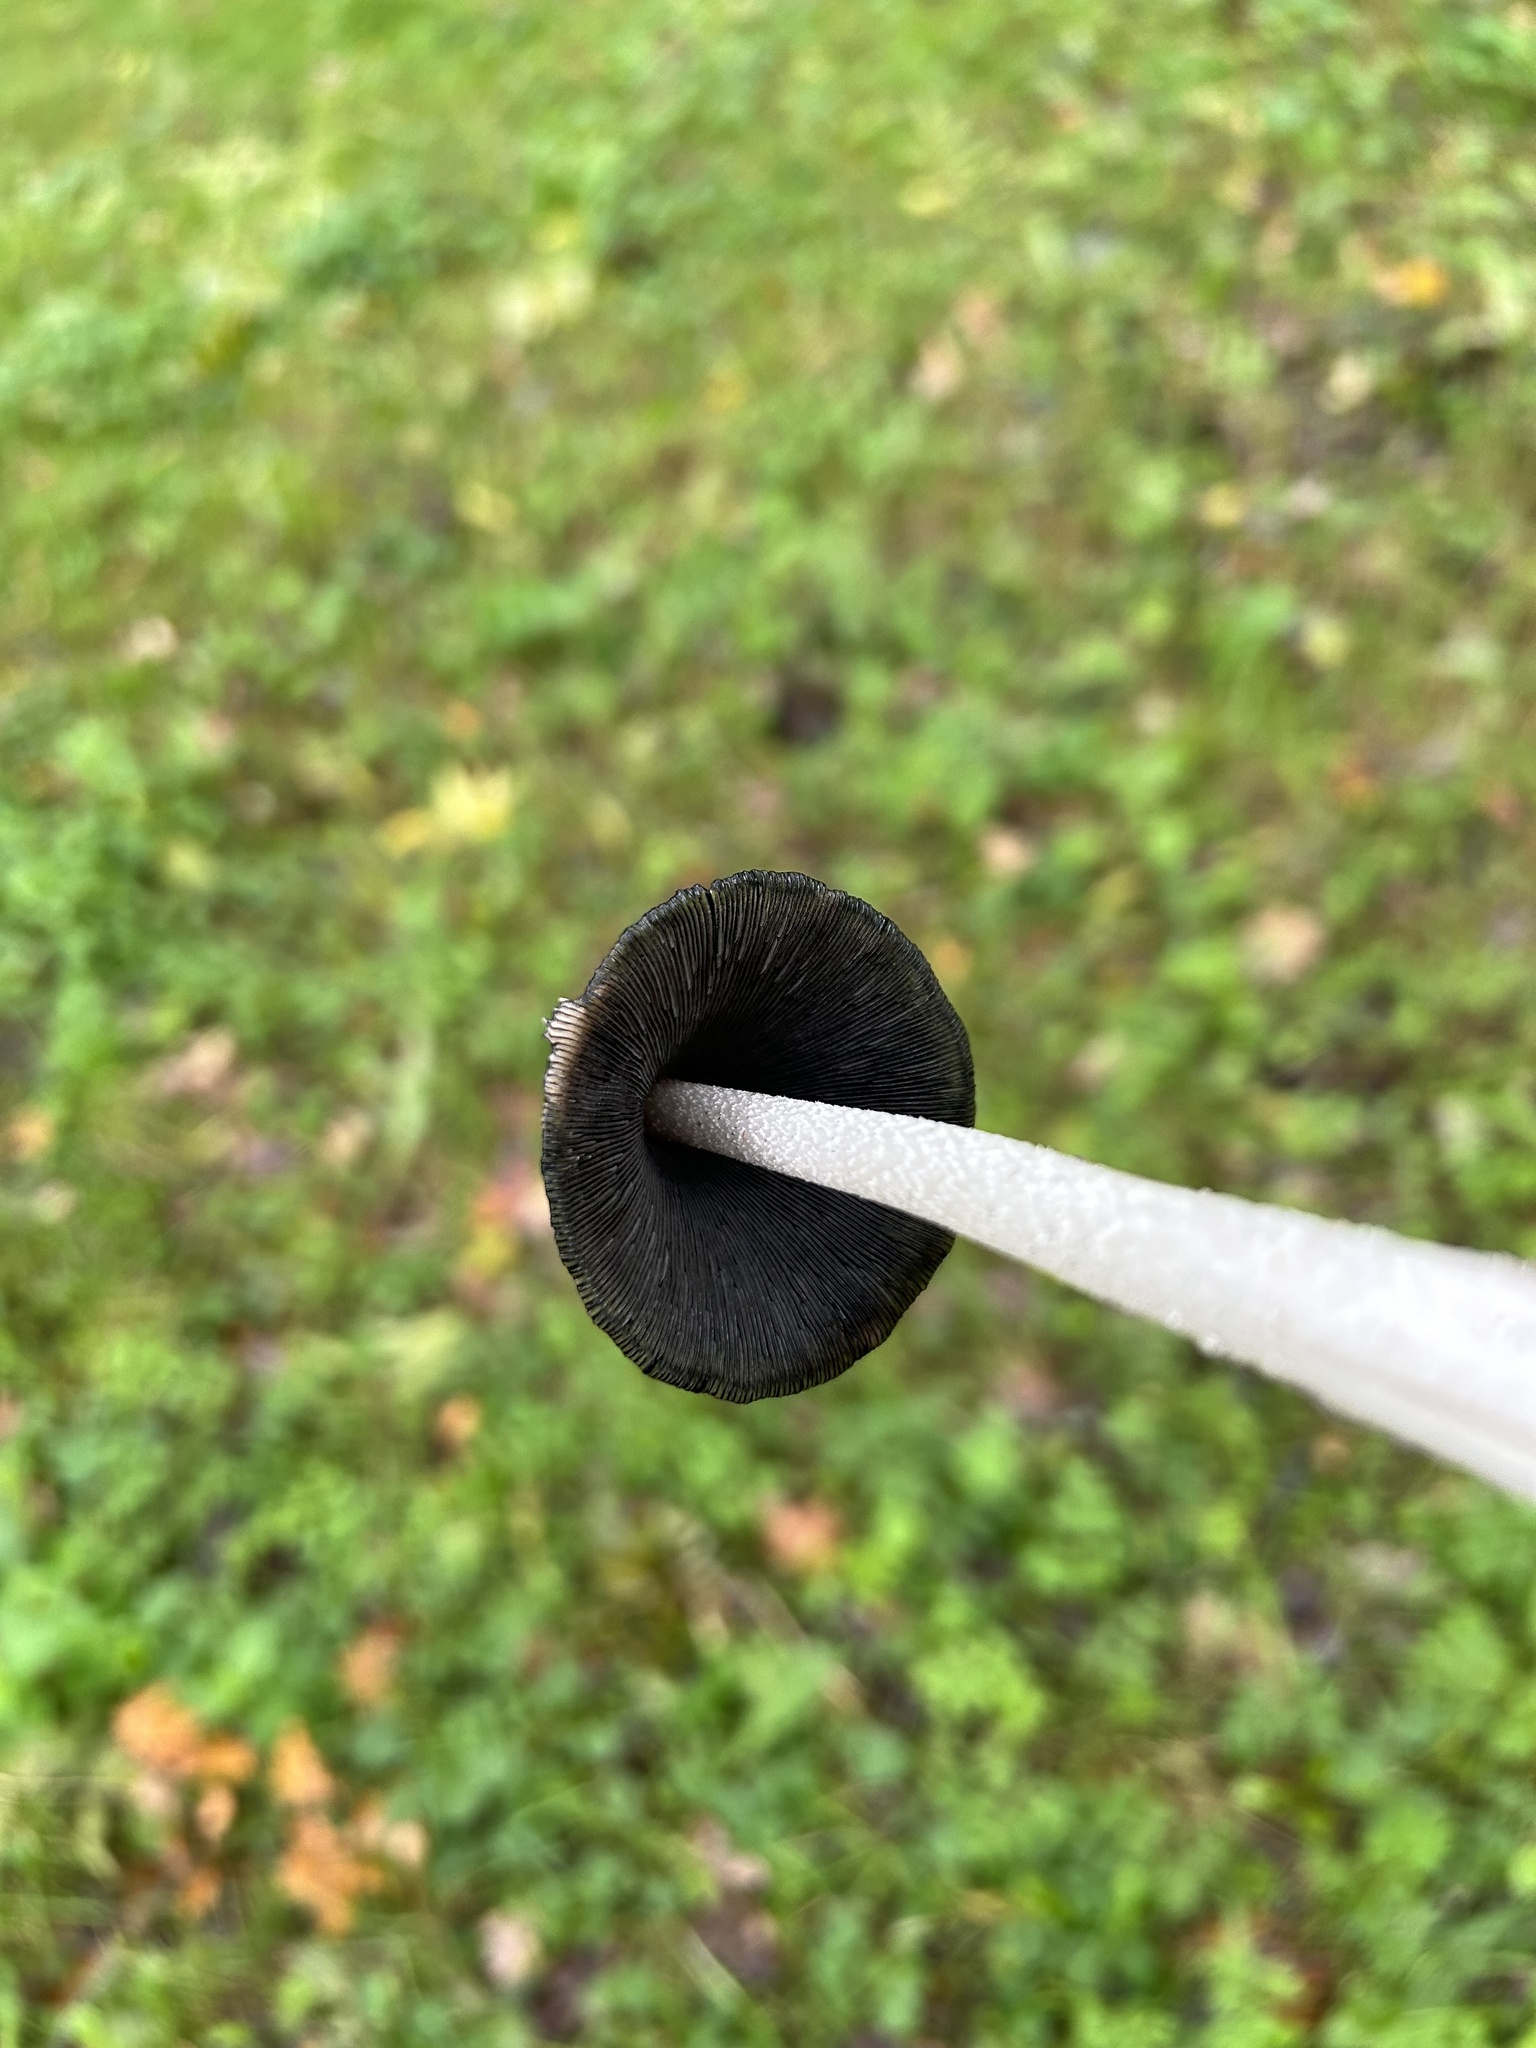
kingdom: Fungi
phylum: Basidiomycota
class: Agaricomycetes
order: Agaricales
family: Psathyrellaceae
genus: Coprinopsis
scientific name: Coprinopsis picacea
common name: Magpie inkcap
